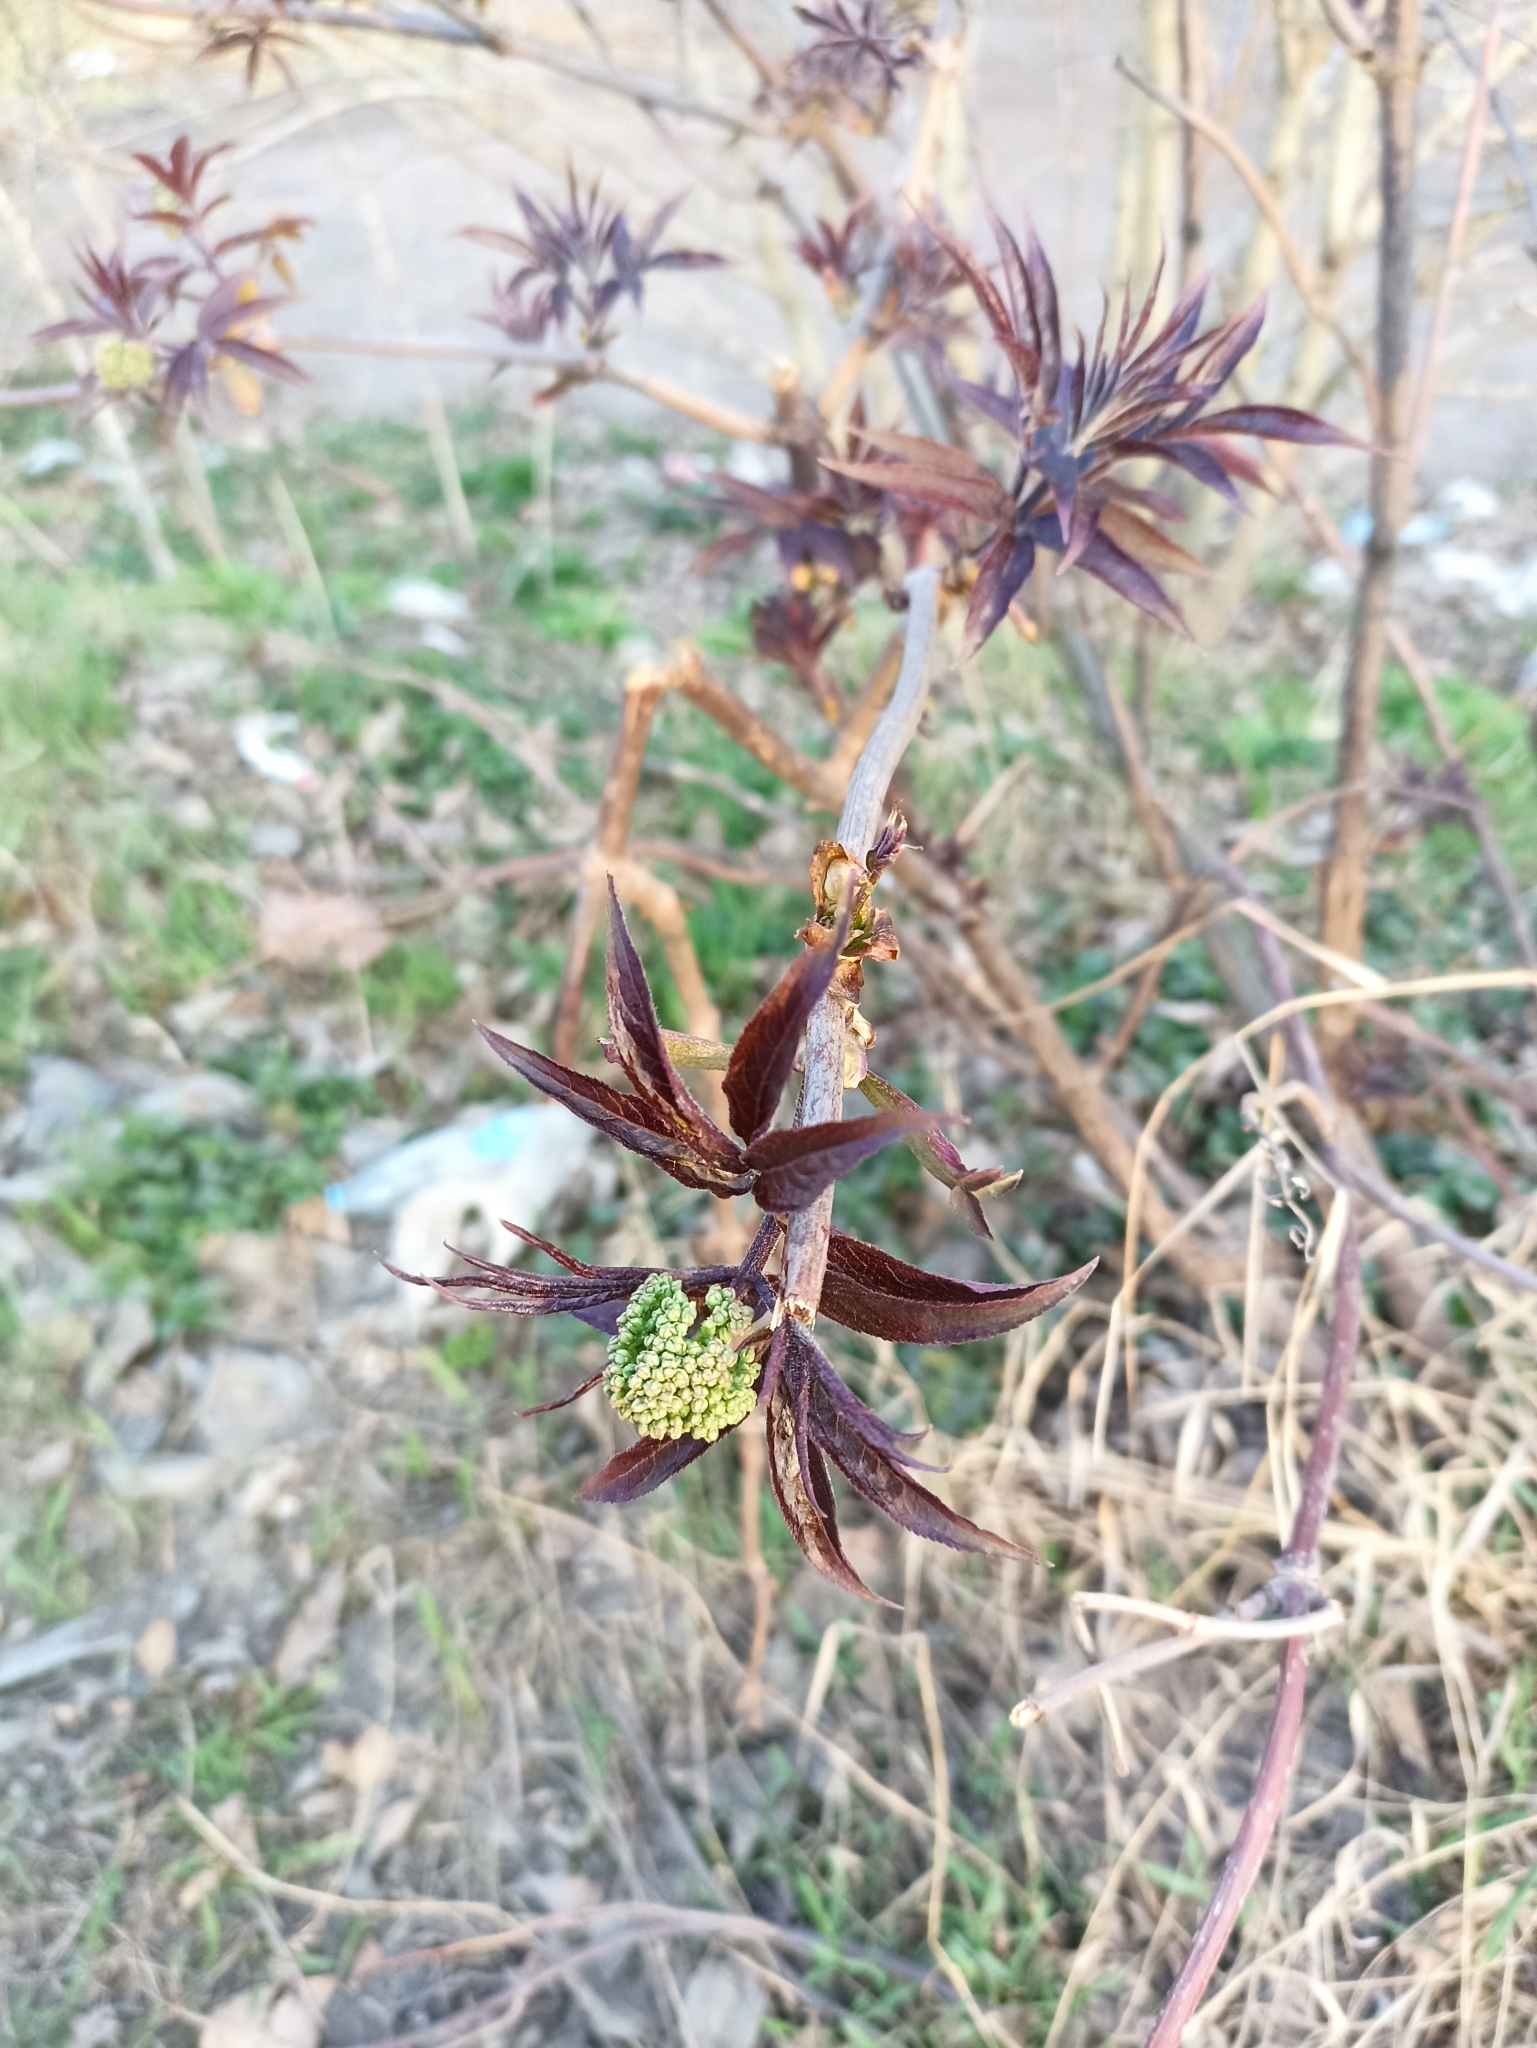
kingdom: Plantae
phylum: Tracheophyta
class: Magnoliopsida
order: Dipsacales
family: Viburnaceae
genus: Sambucus
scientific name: Sambucus racemosa
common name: Red-berried elder
